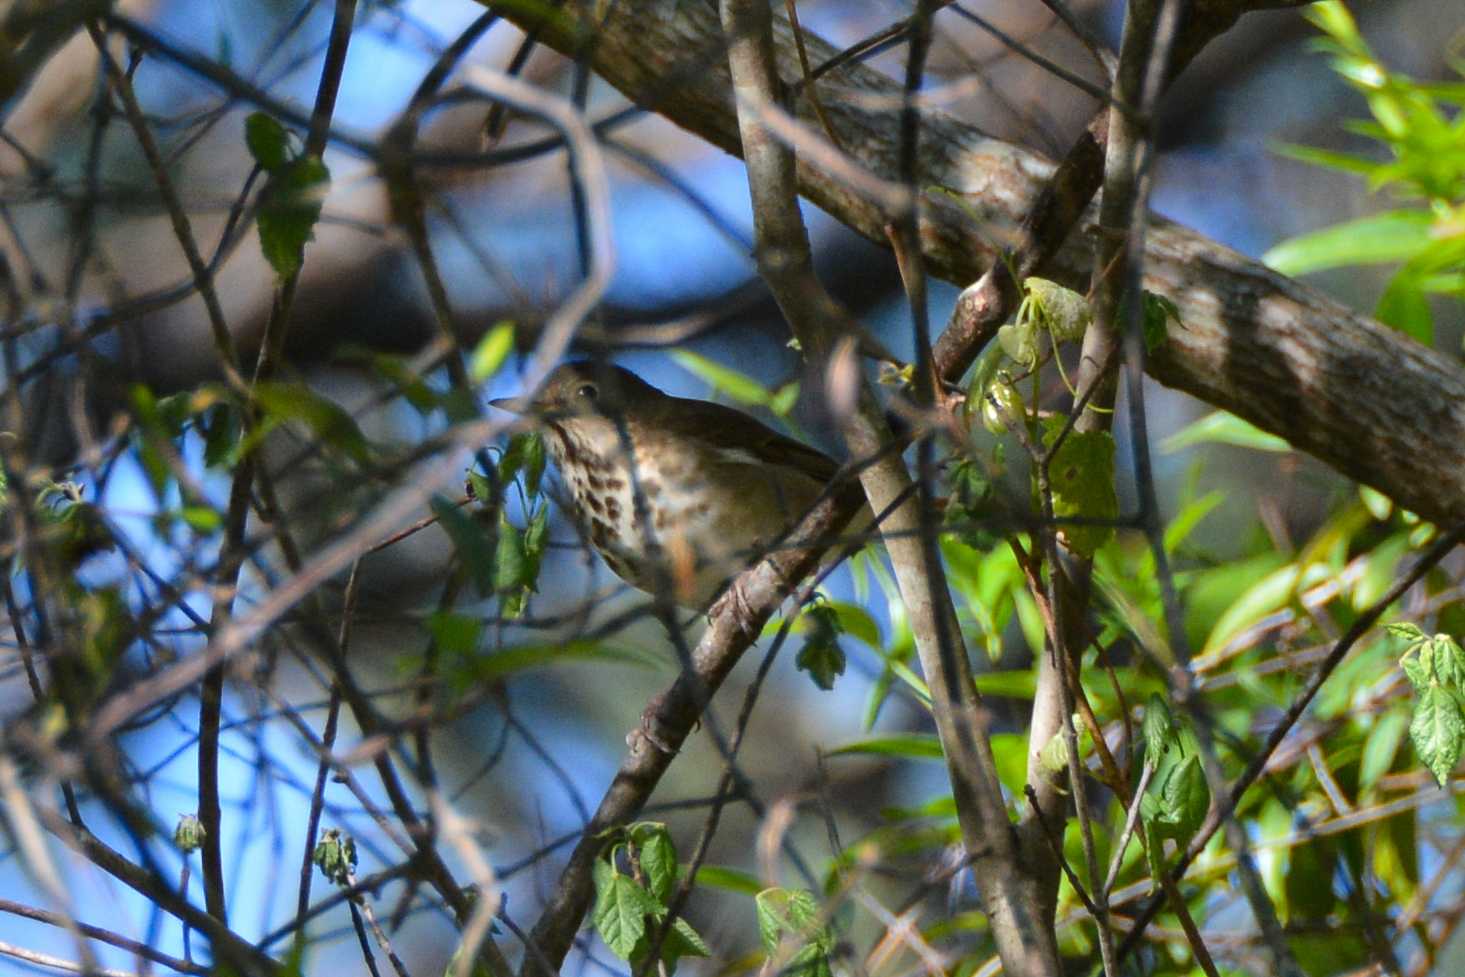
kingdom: Animalia
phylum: Chordata
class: Aves
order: Passeriformes
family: Turdidae
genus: Catharus
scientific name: Catharus guttatus
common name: Hermit thrush
